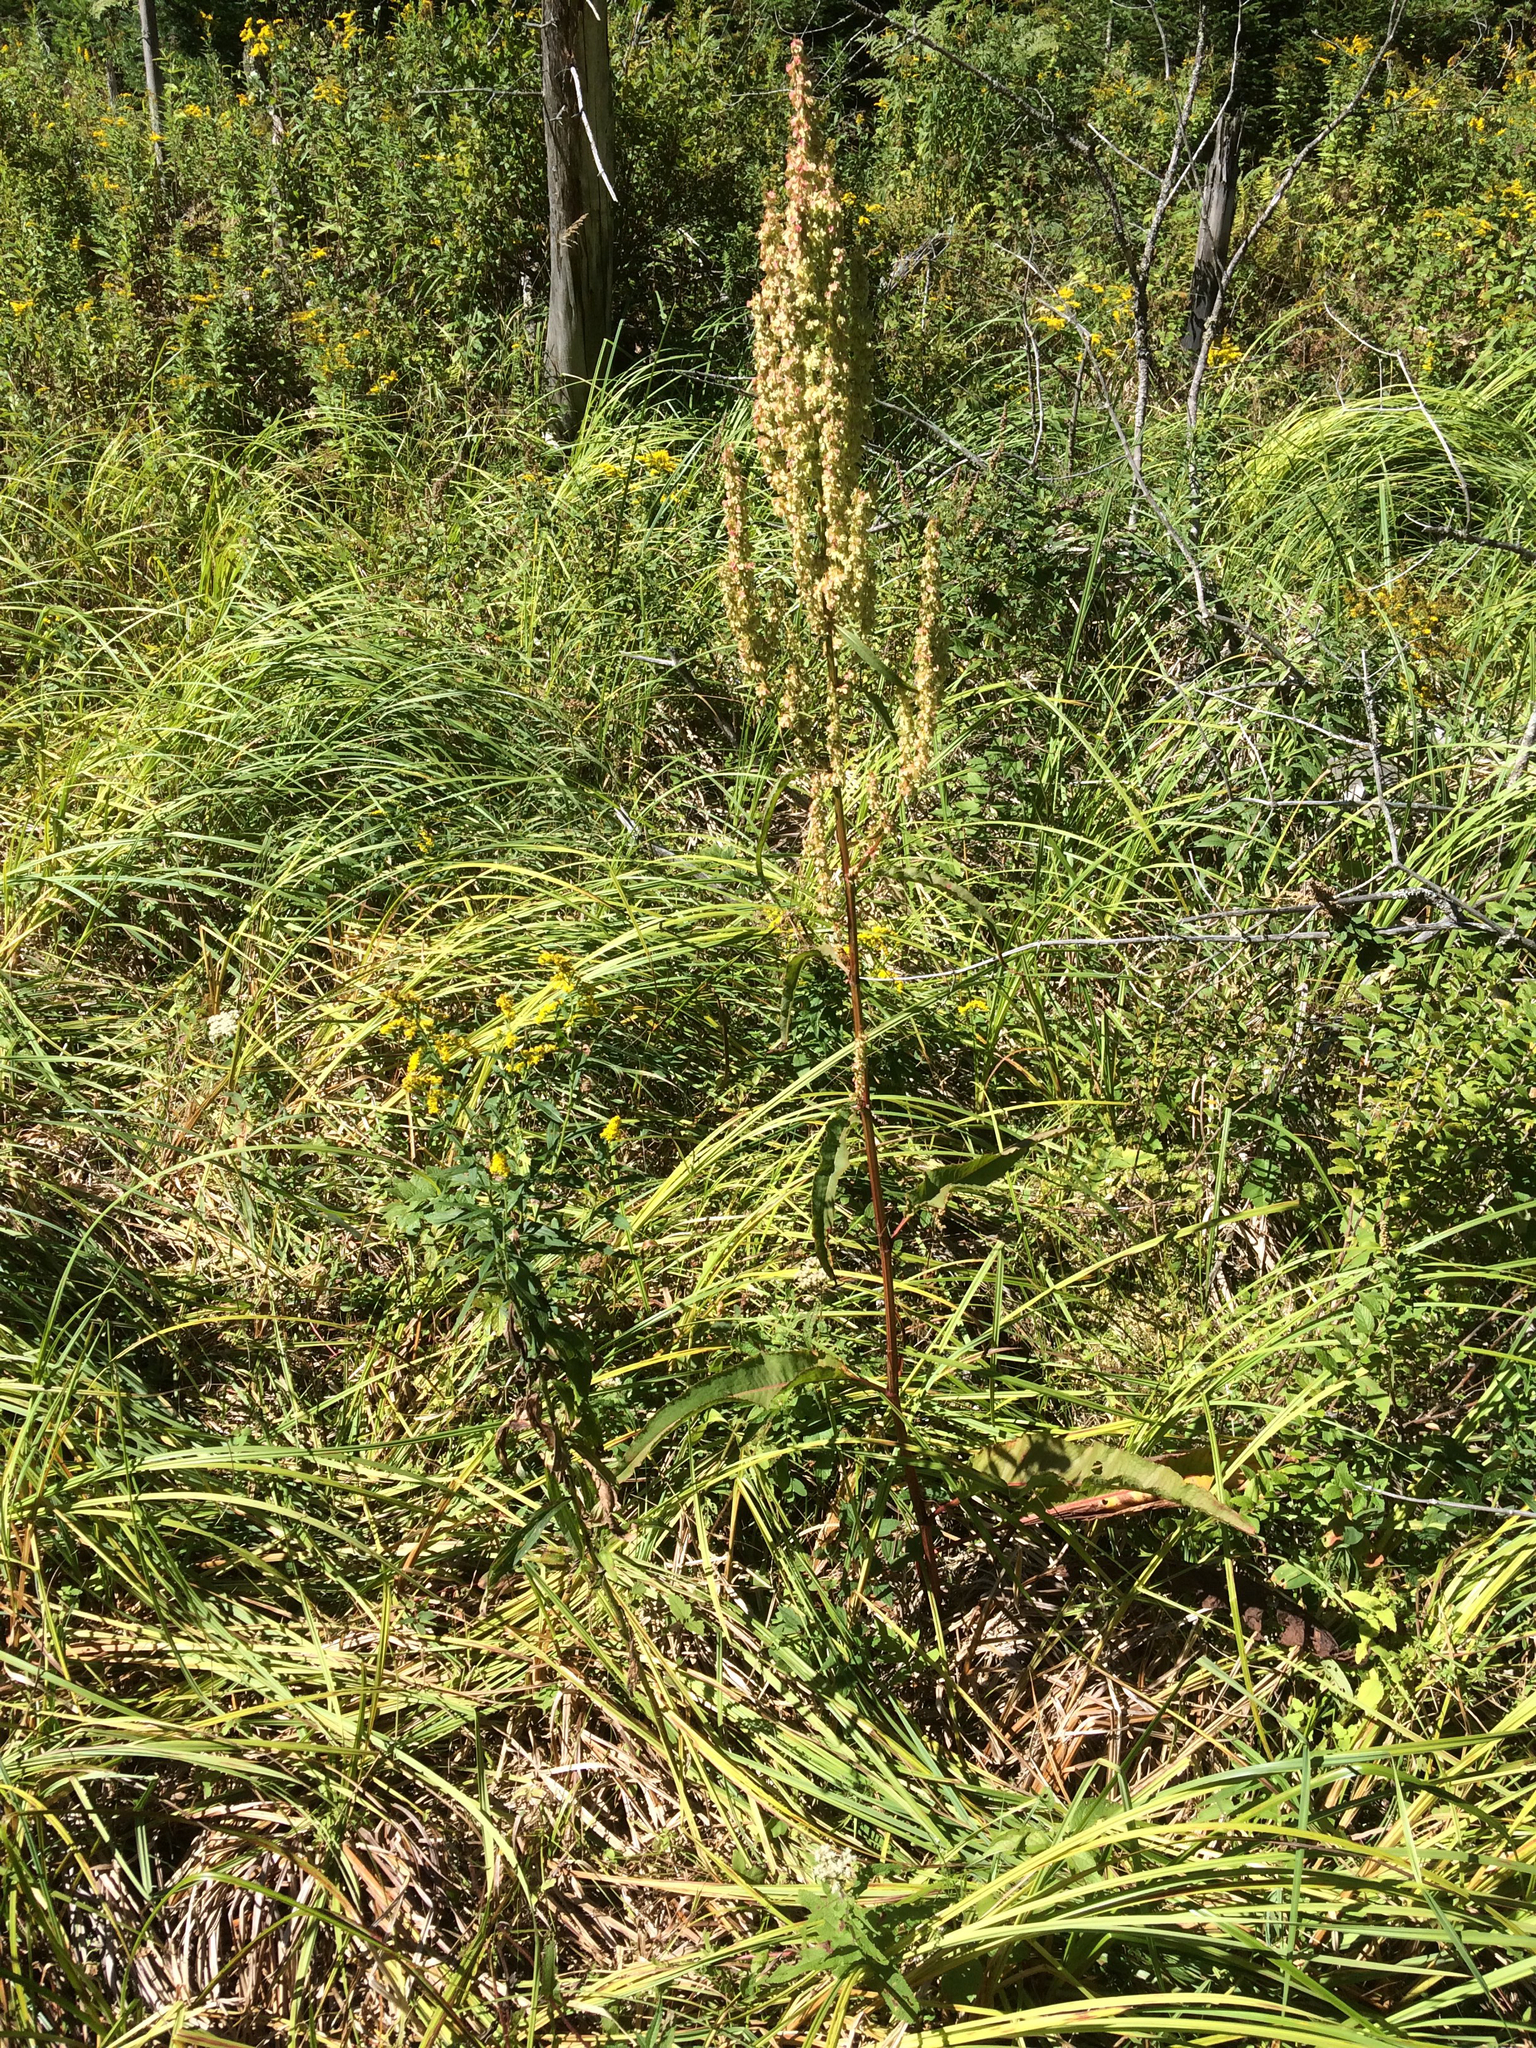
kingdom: Plantae
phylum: Tracheophyta
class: Magnoliopsida
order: Caryophyllales
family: Polygonaceae
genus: Rumex
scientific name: Rumex crispus
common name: Curled dock
